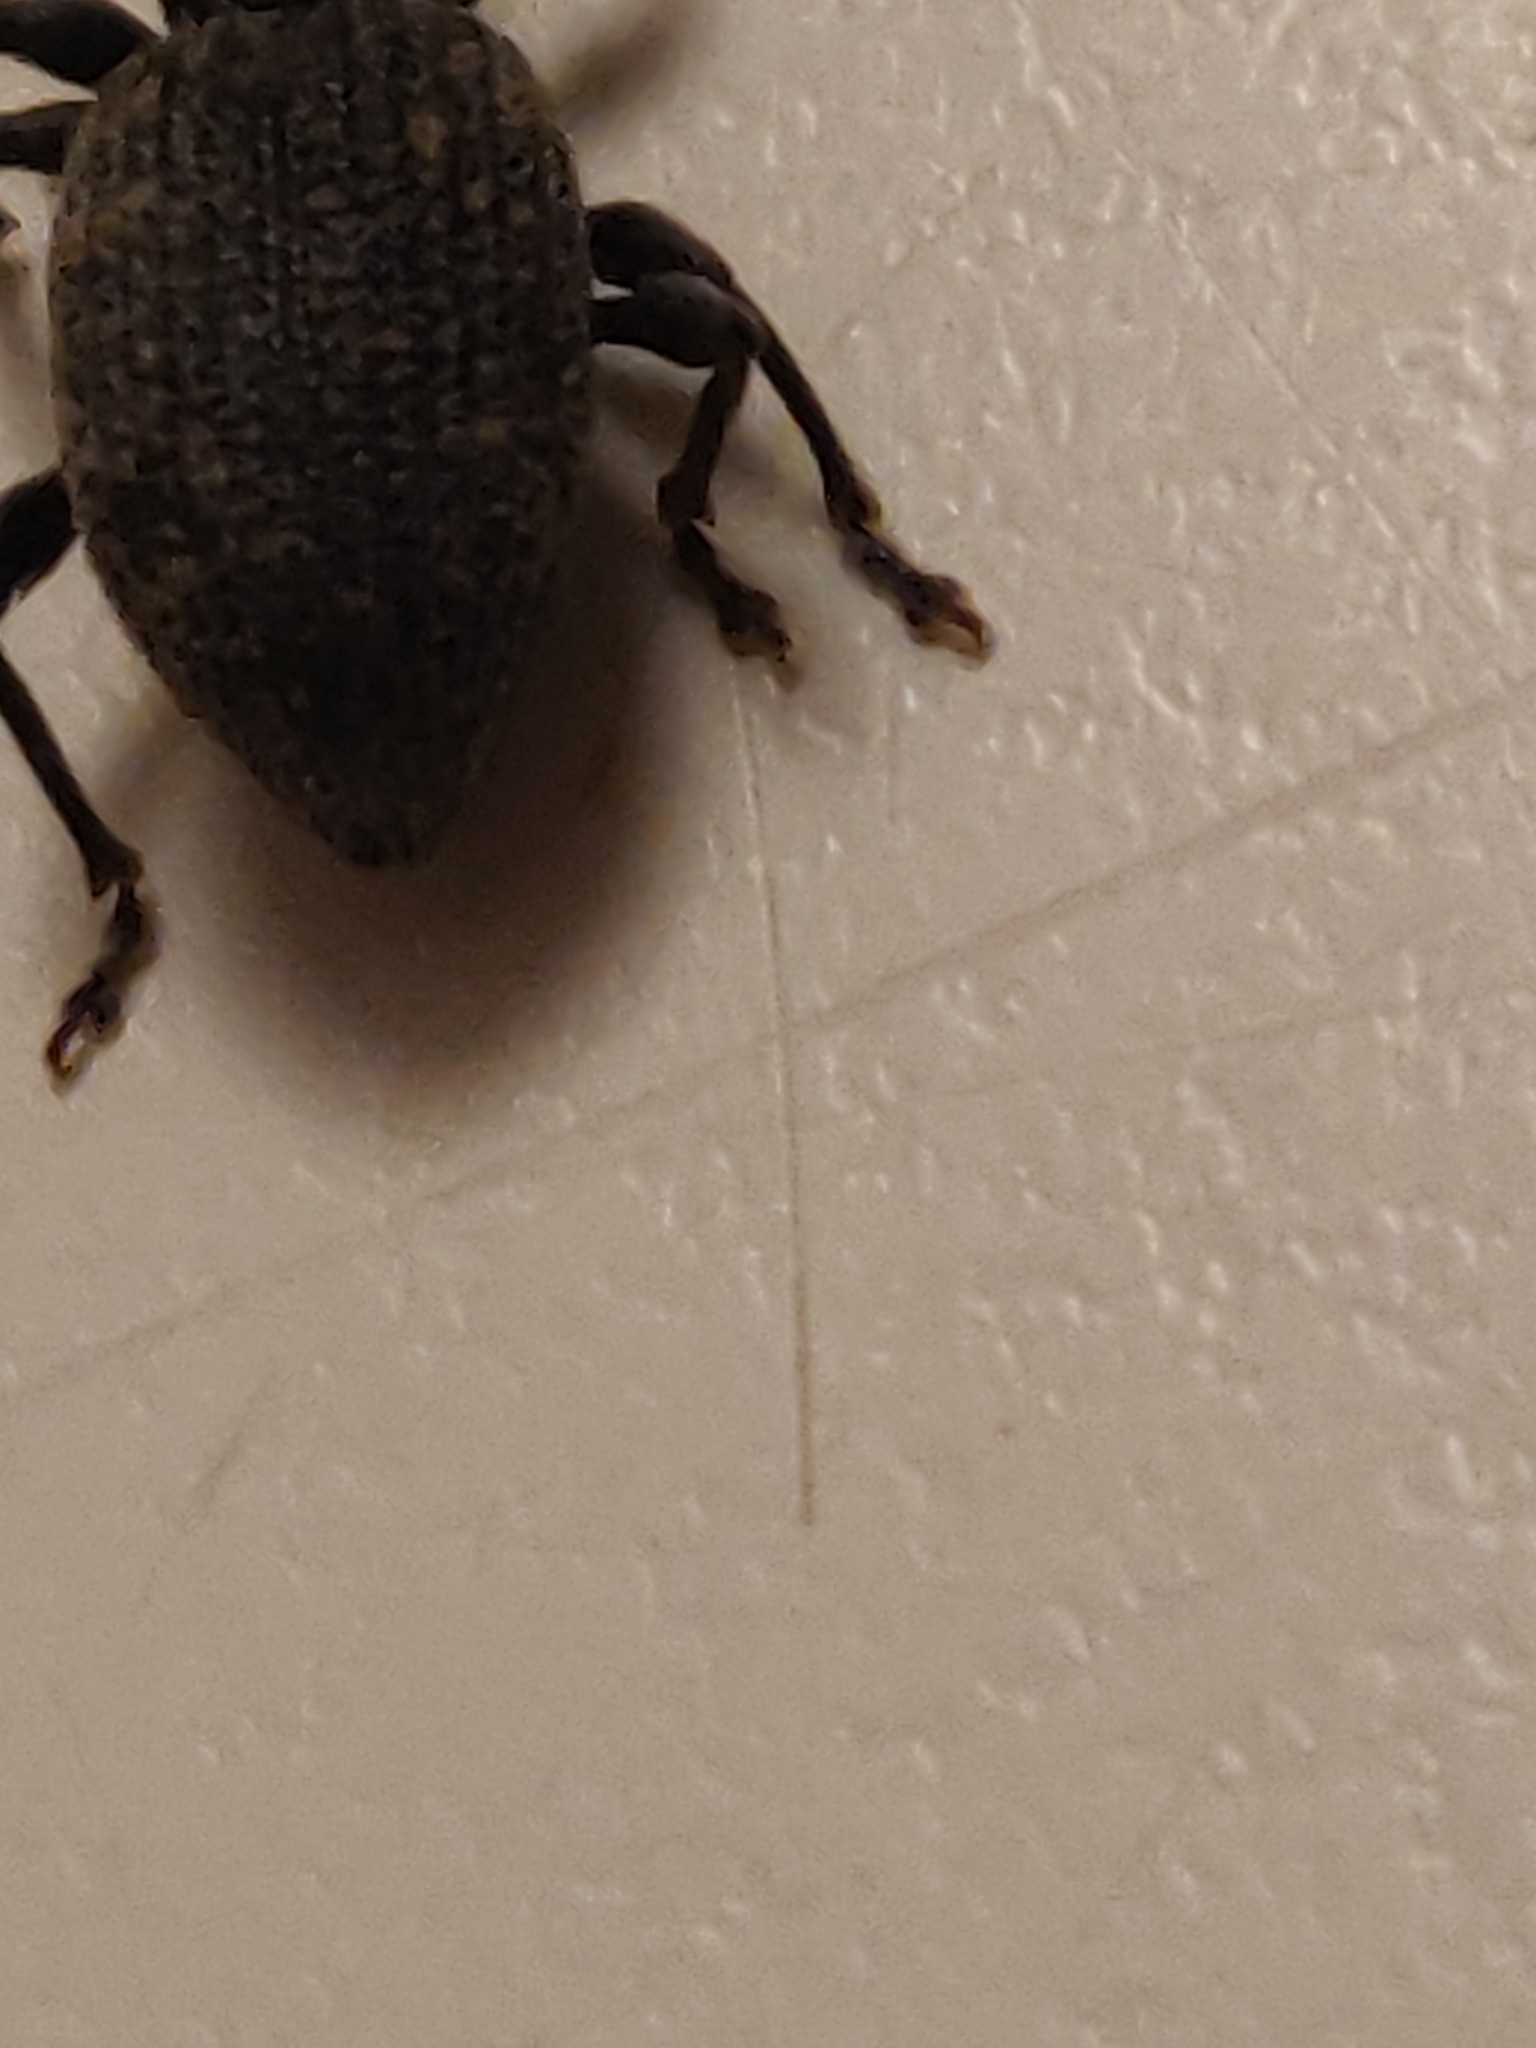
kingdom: Animalia
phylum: Arthropoda
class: Insecta
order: Coleoptera
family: Curculionidae
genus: Otiorhynchus
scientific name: Otiorhynchus sulcatus
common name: Black vine weevil
